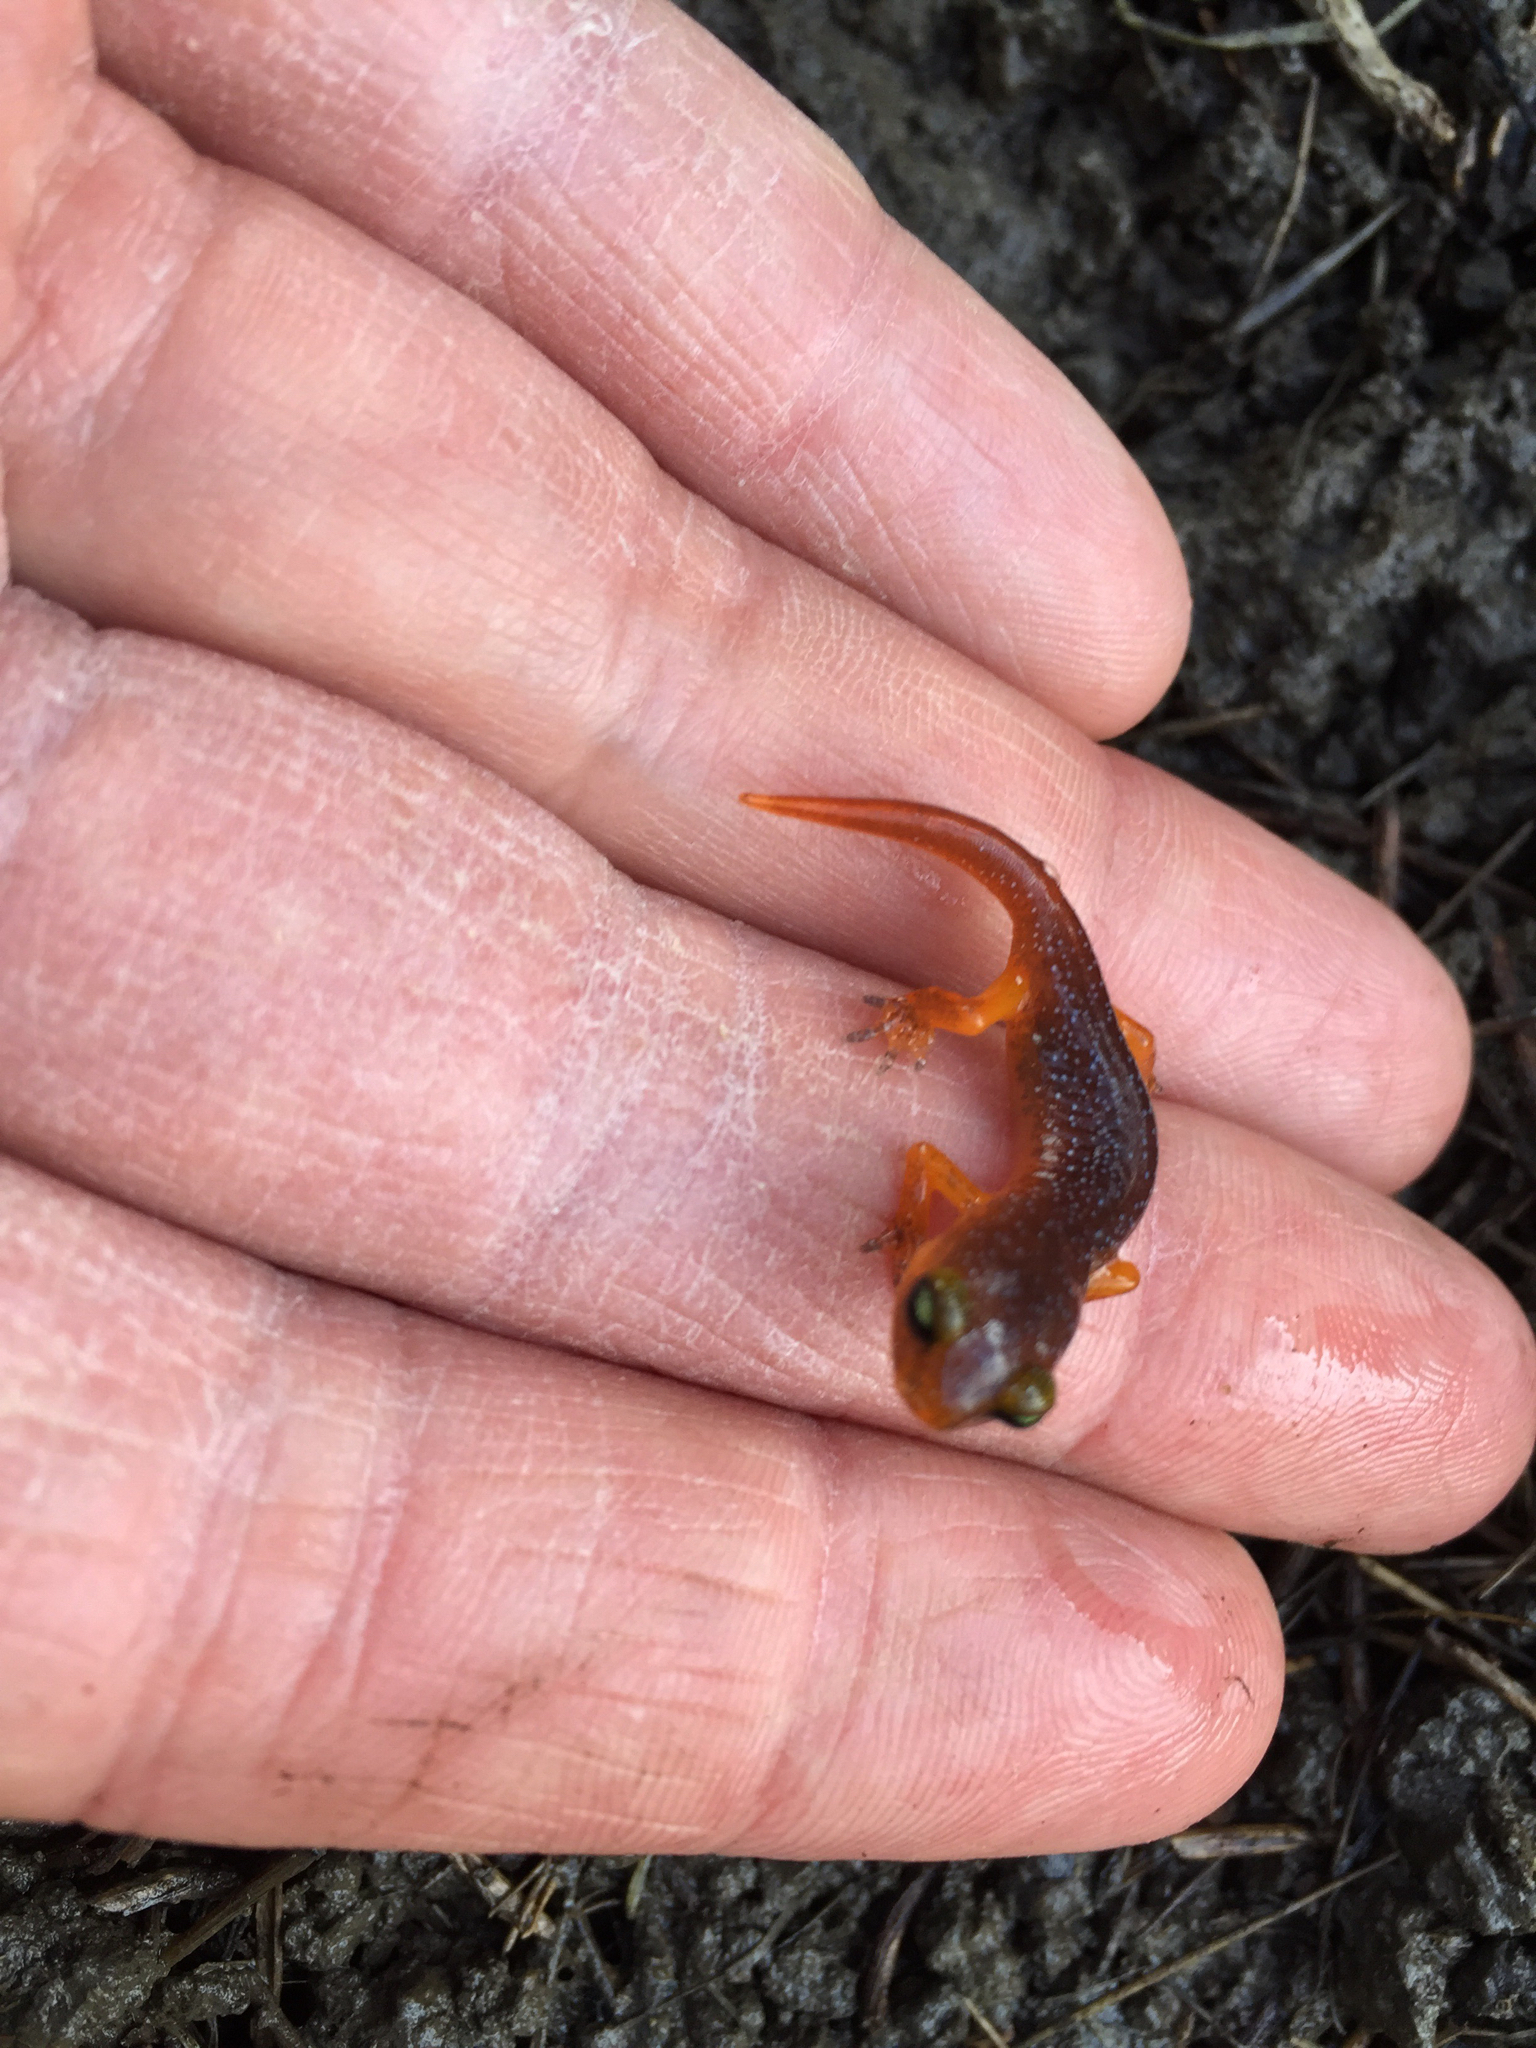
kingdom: Animalia
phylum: Chordata
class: Amphibia
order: Caudata
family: Plethodontidae
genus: Ensatina
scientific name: Ensatina eschscholtzii
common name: Ensatina
